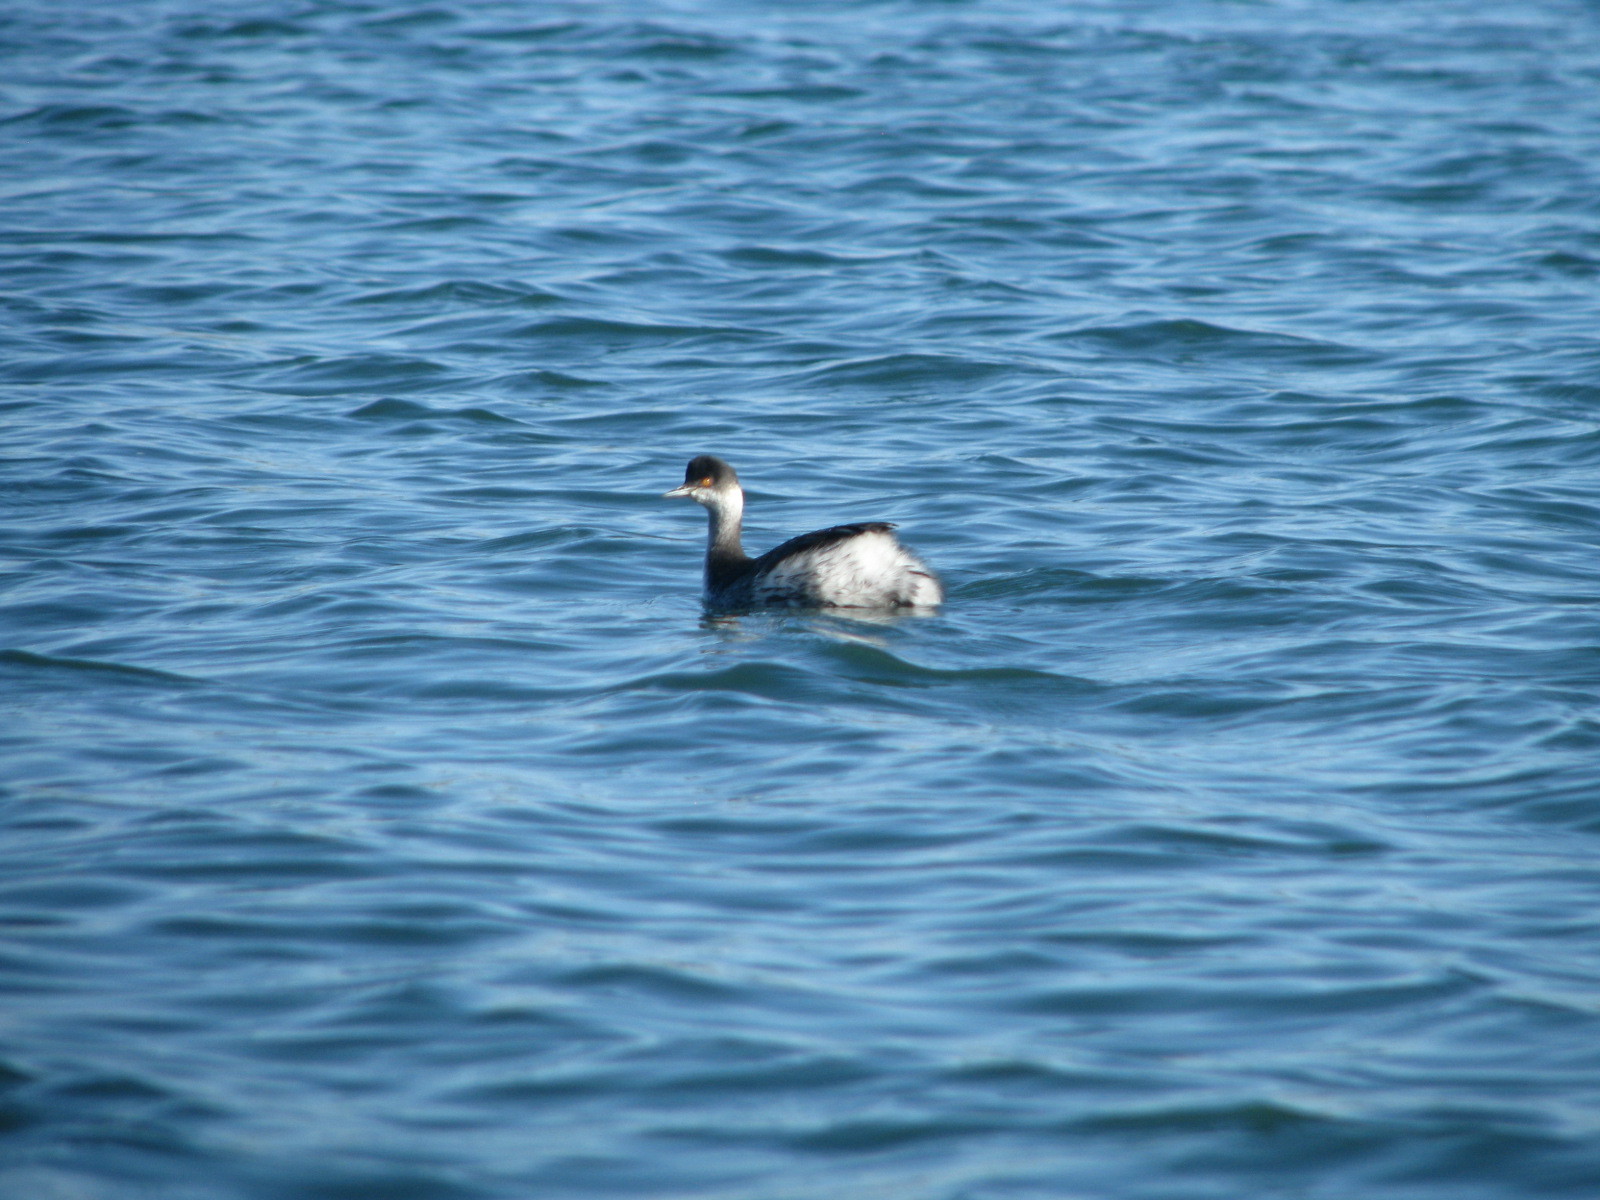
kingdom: Animalia
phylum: Chordata
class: Aves
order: Podicipediformes
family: Podicipedidae
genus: Podiceps
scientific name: Podiceps nigricollis
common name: Black-necked grebe
